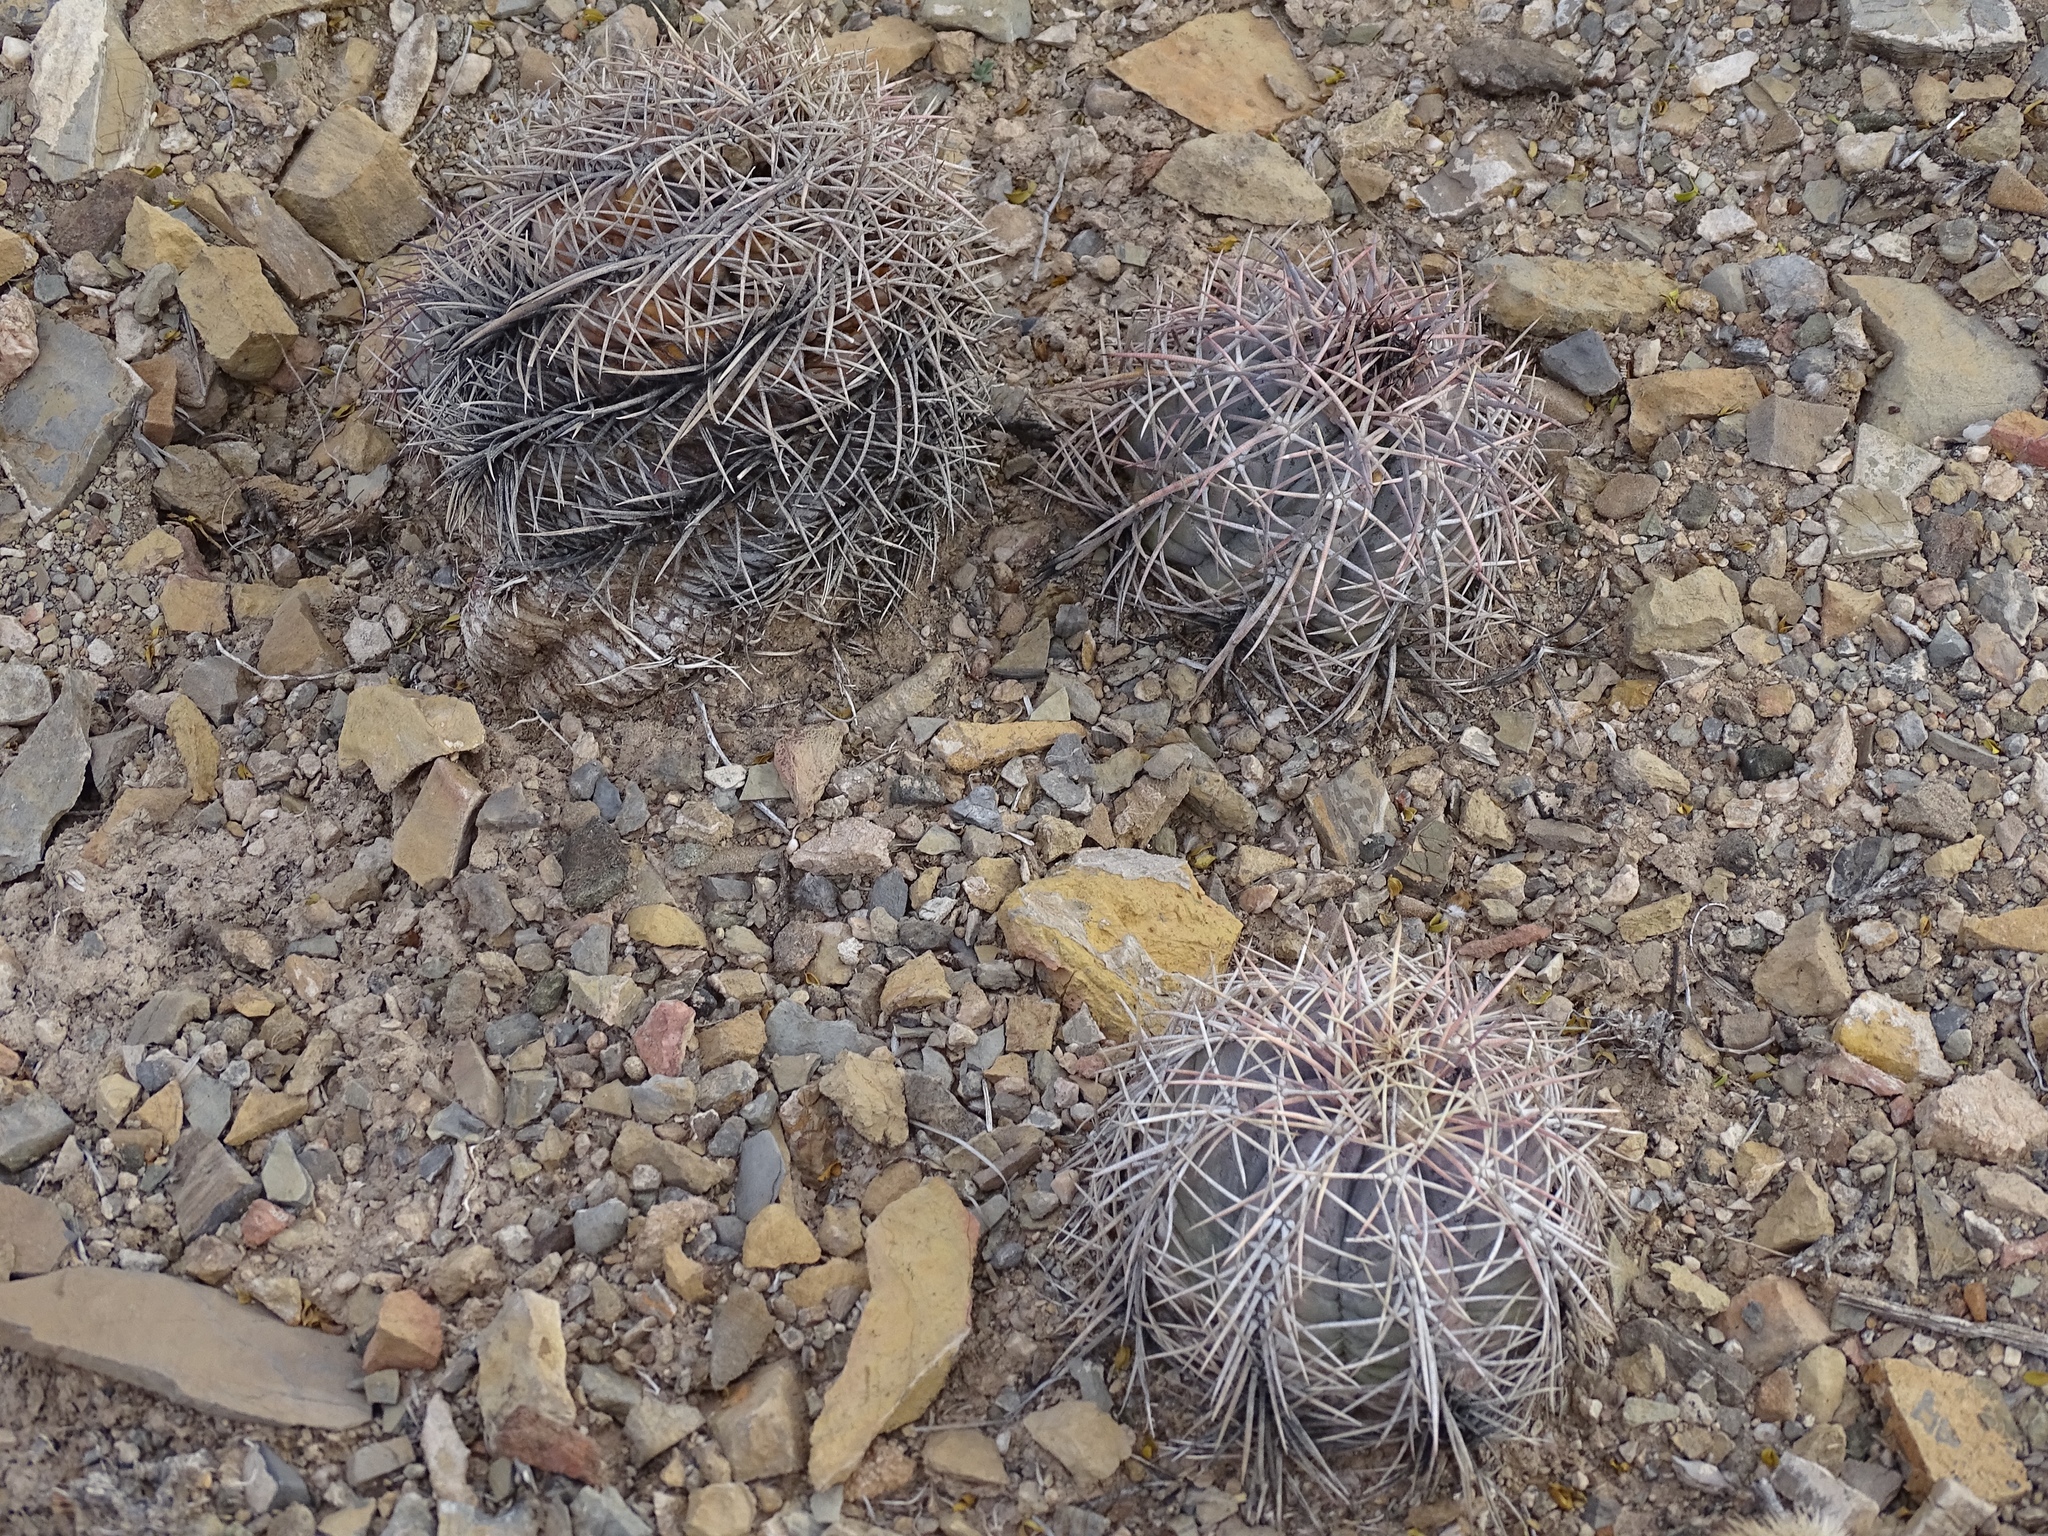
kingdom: Plantae
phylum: Tracheophyta
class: Magnoliopsida
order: Caryophyllales
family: Cactaceae
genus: Echinocactus
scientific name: Echinocactus horizonthalonius
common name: Devilshead
